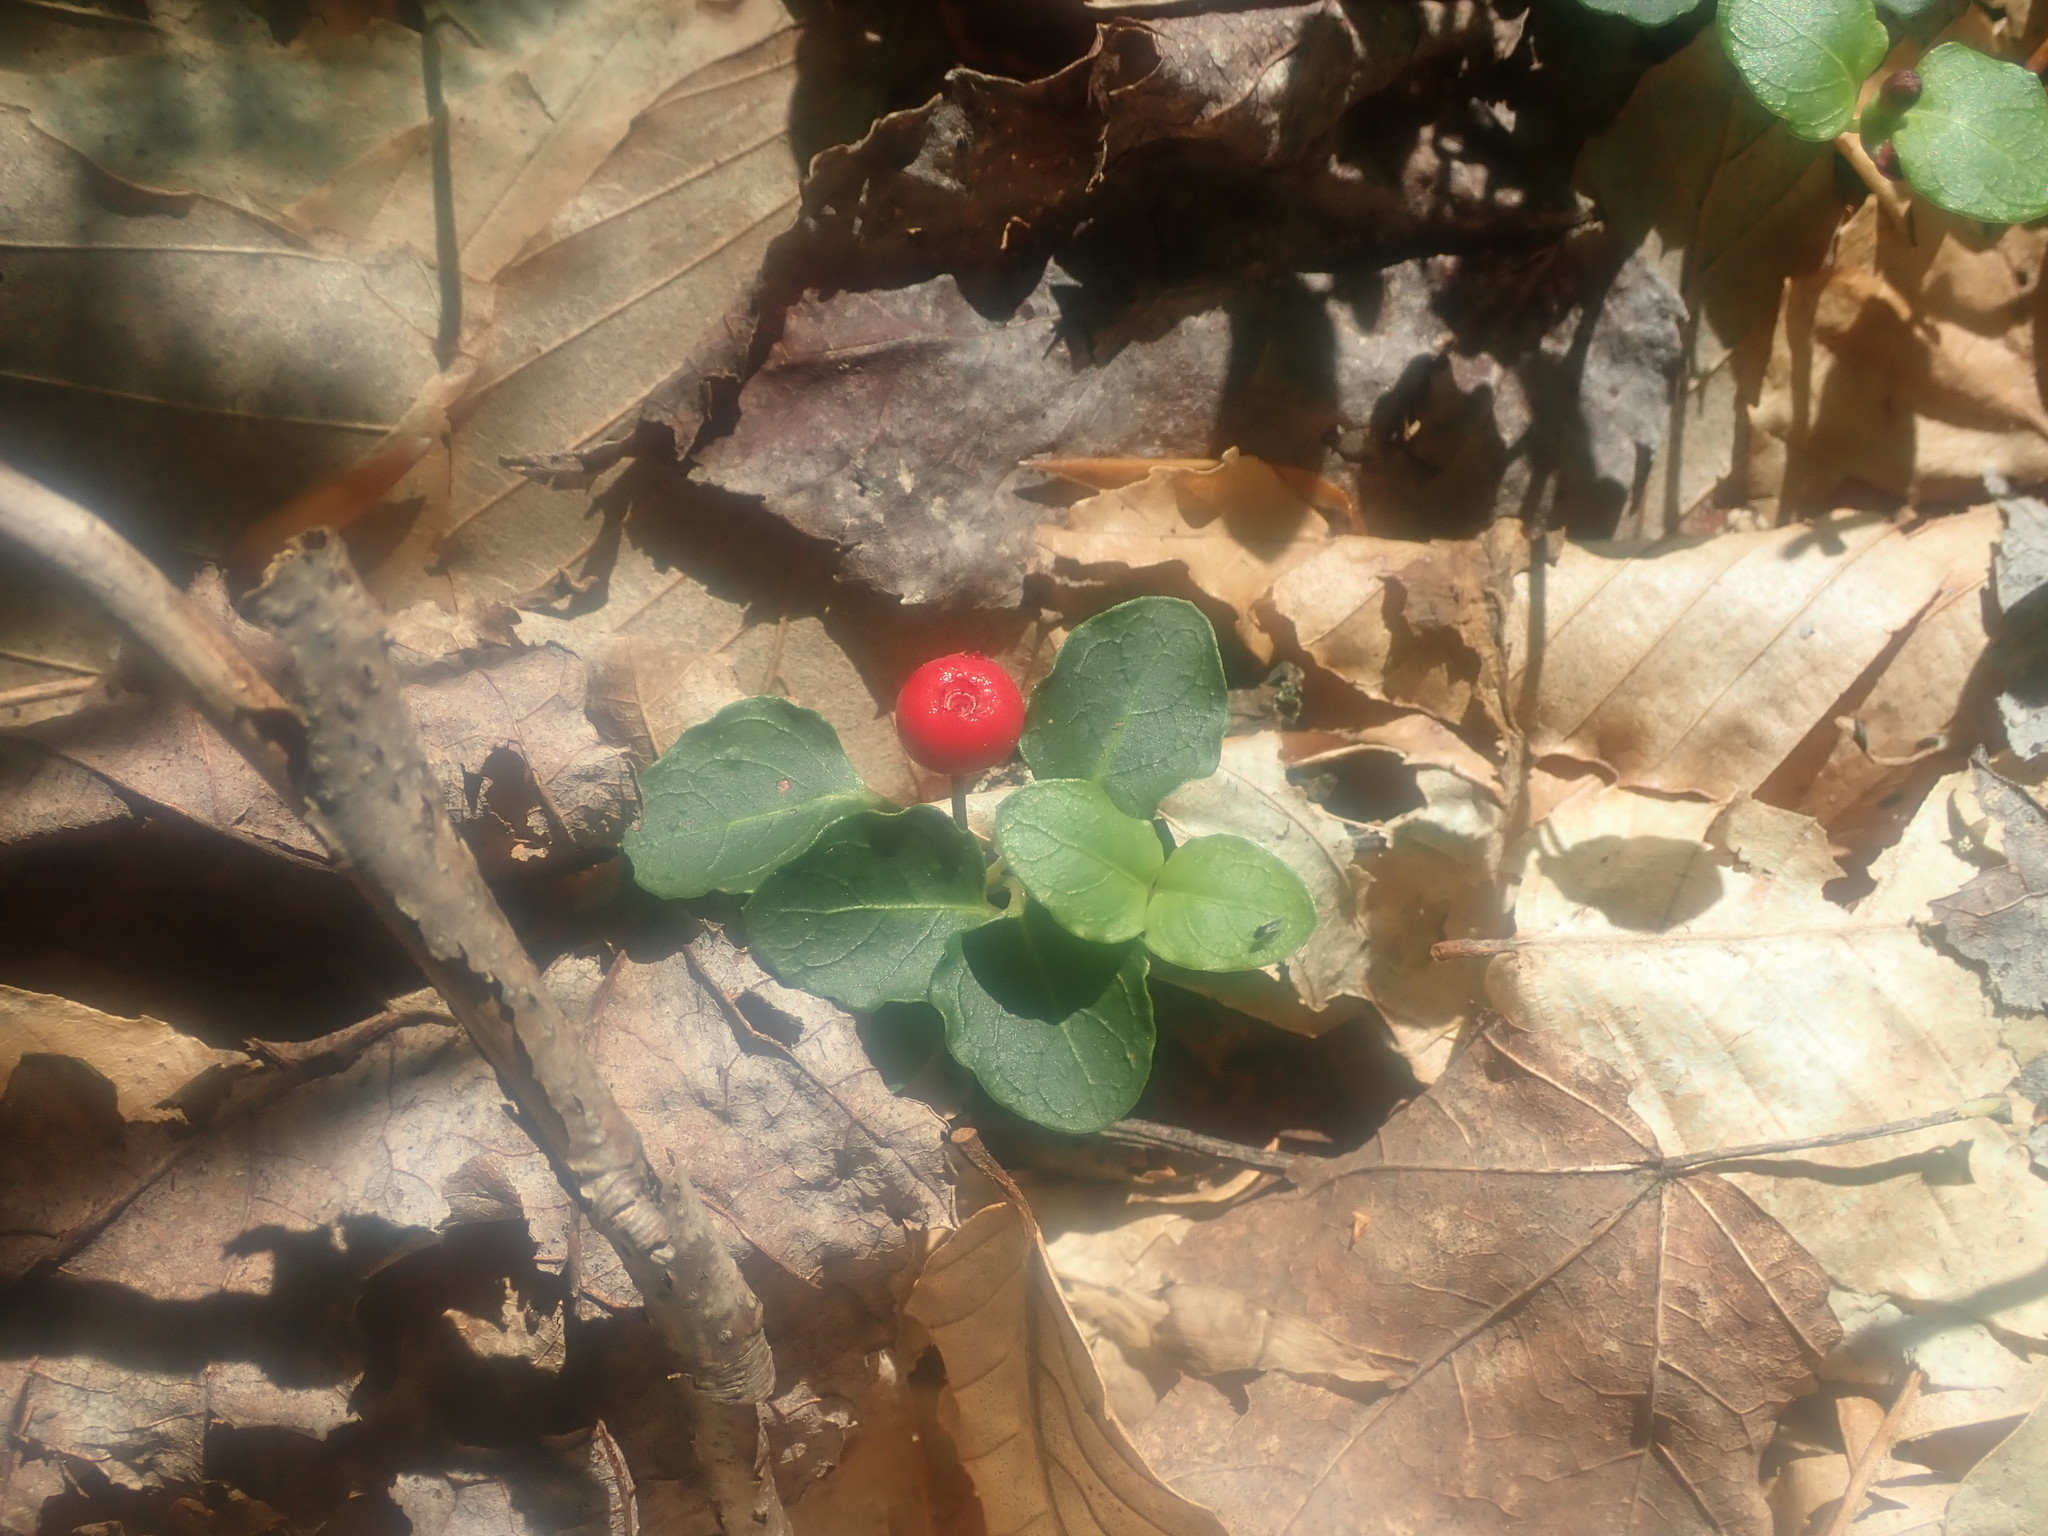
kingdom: Plantae
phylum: Tracheophyta
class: Magnoliopsida
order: Gentianales
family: Rubiaceae
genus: Mitchella
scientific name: Mitchella repens
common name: Partridge-berry
